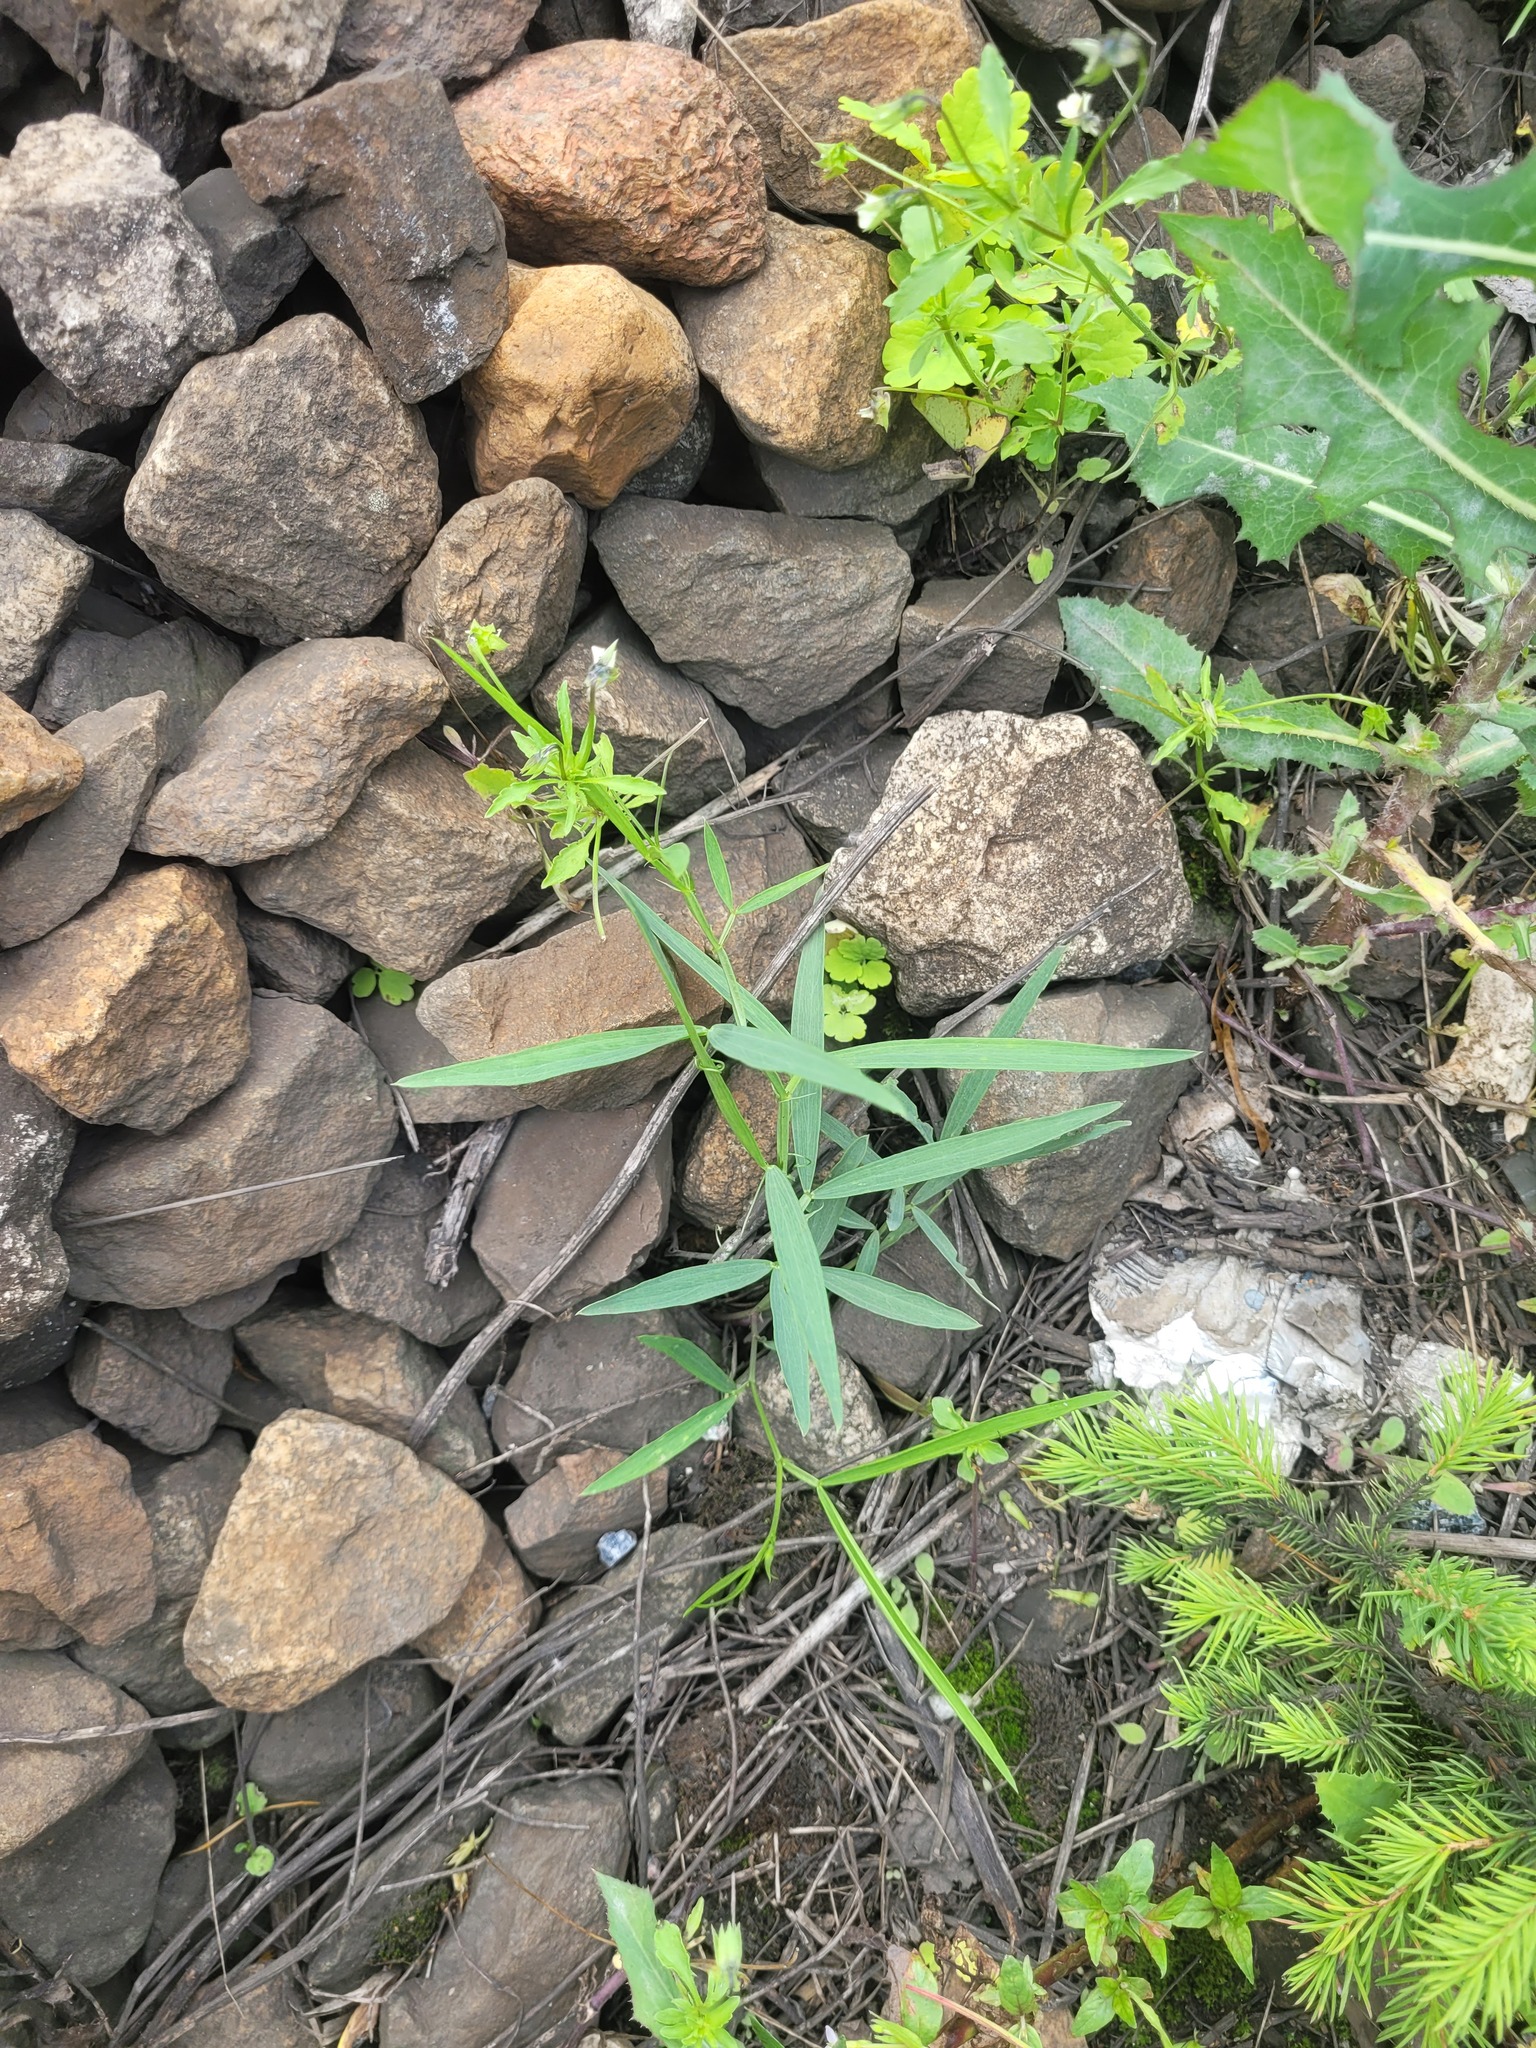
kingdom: Plantae
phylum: Tracheophyta
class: Magnoliopsida
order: Fabales
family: Fabaceae
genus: Lathyrus
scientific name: Lathyrus sylvestris
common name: Flat pea
